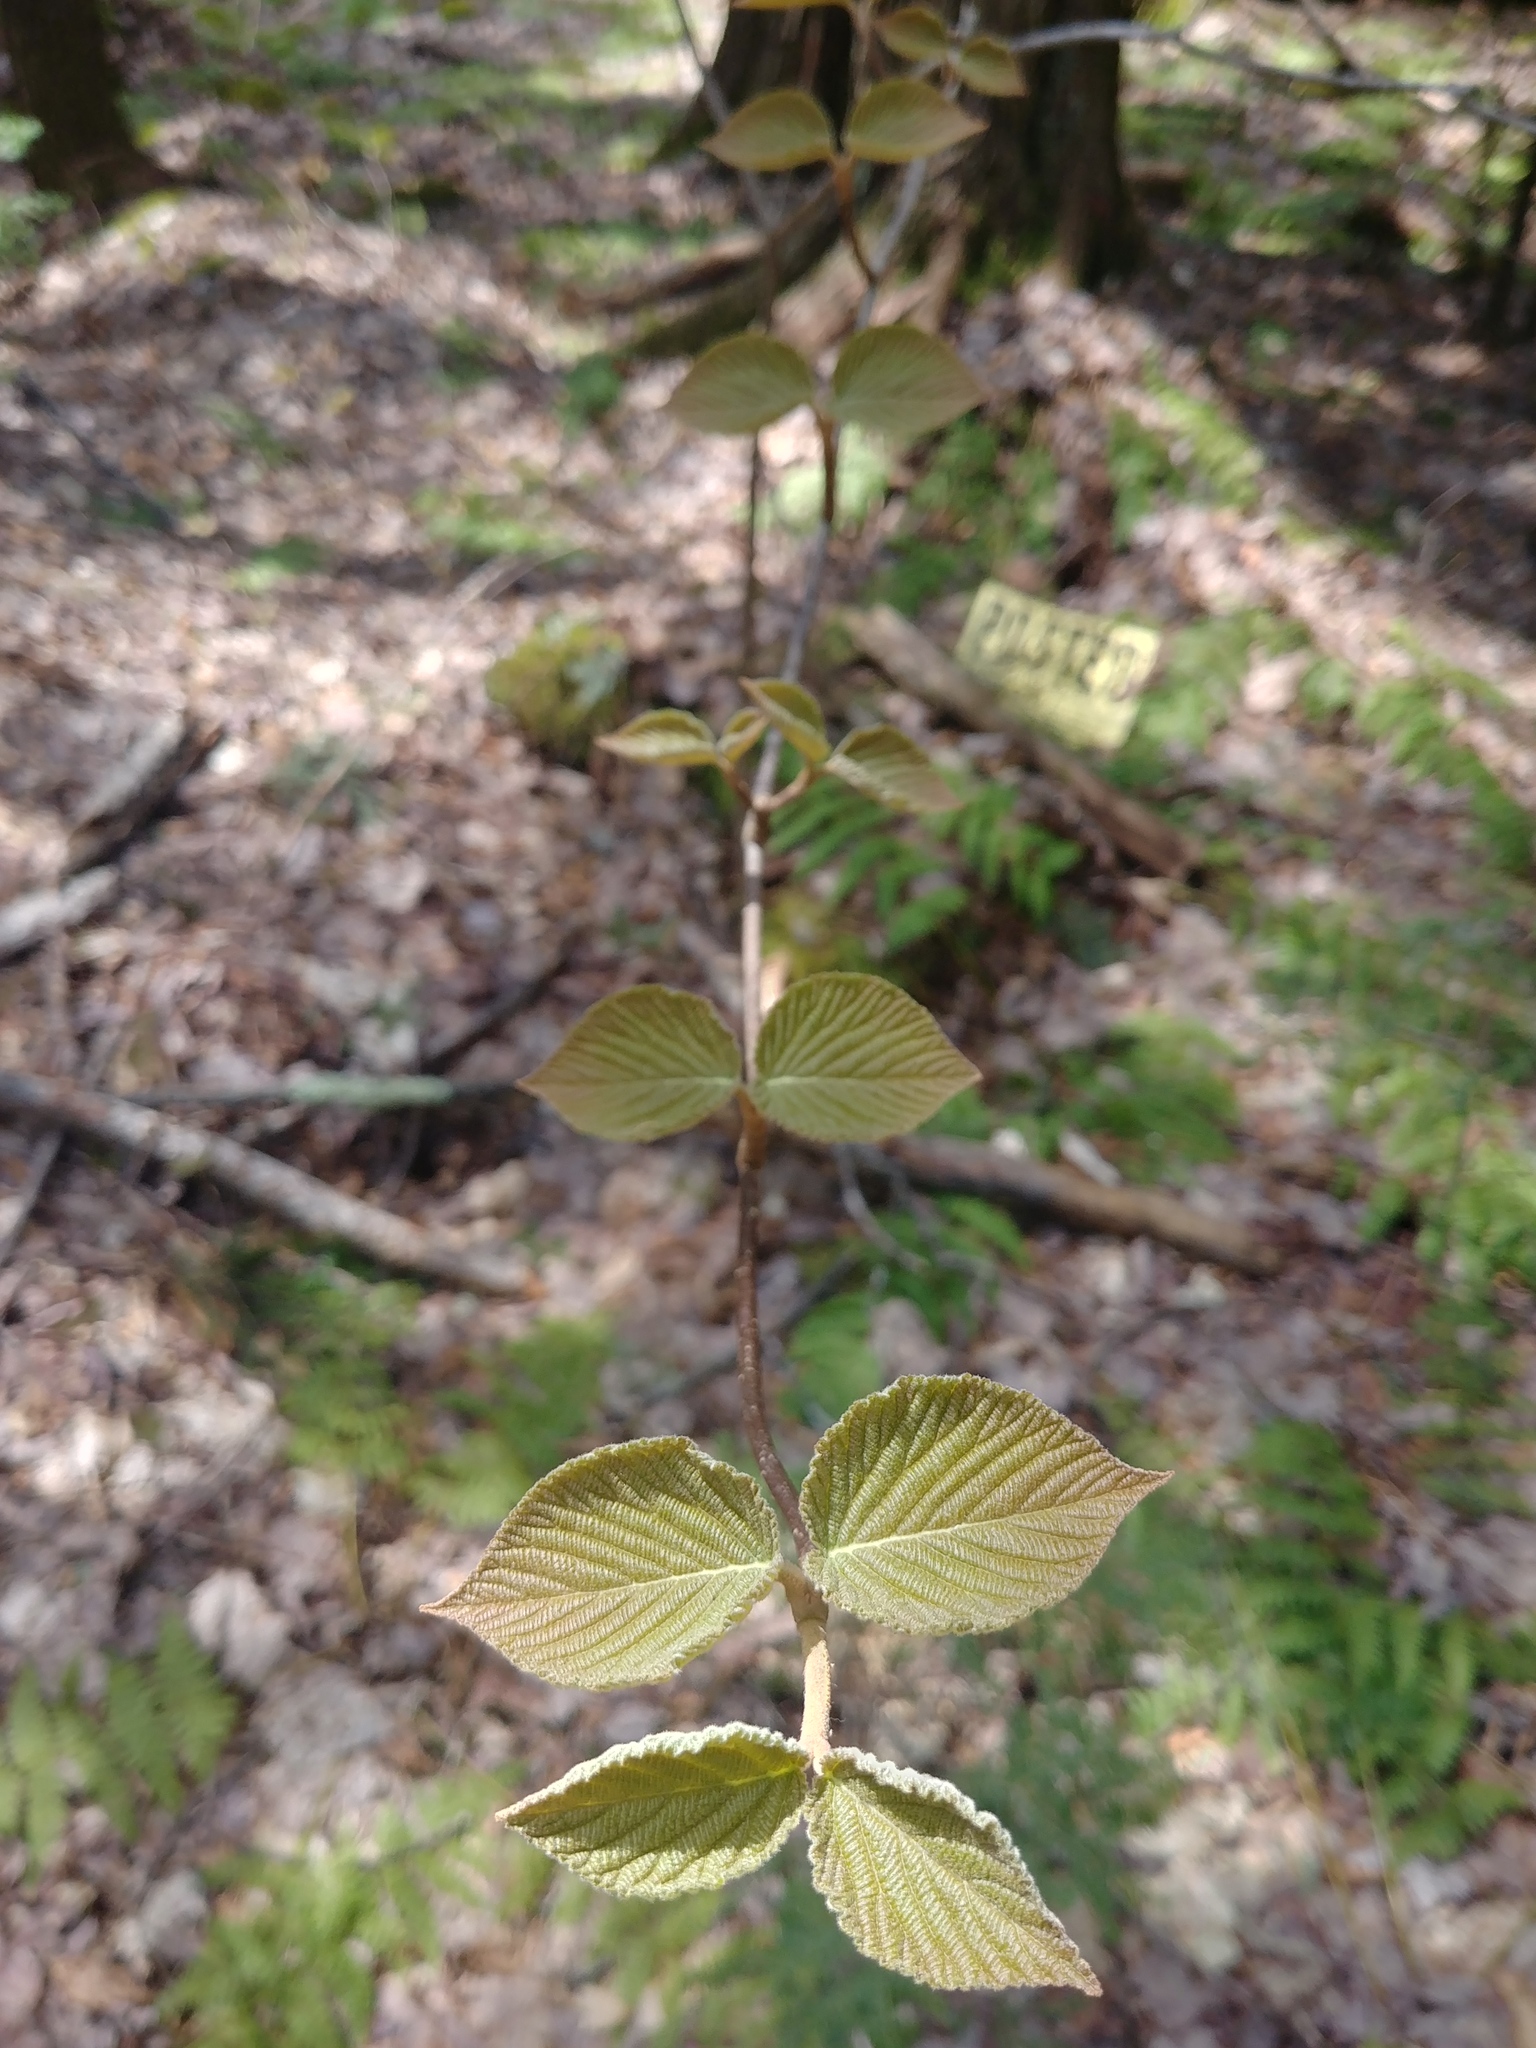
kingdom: Plantae
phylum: Tracheophyta
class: Magnoliopsida
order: Dipsacales
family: Viburnaceae
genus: Viburnum
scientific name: Viburnum lantanoides
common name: Hobblebush
